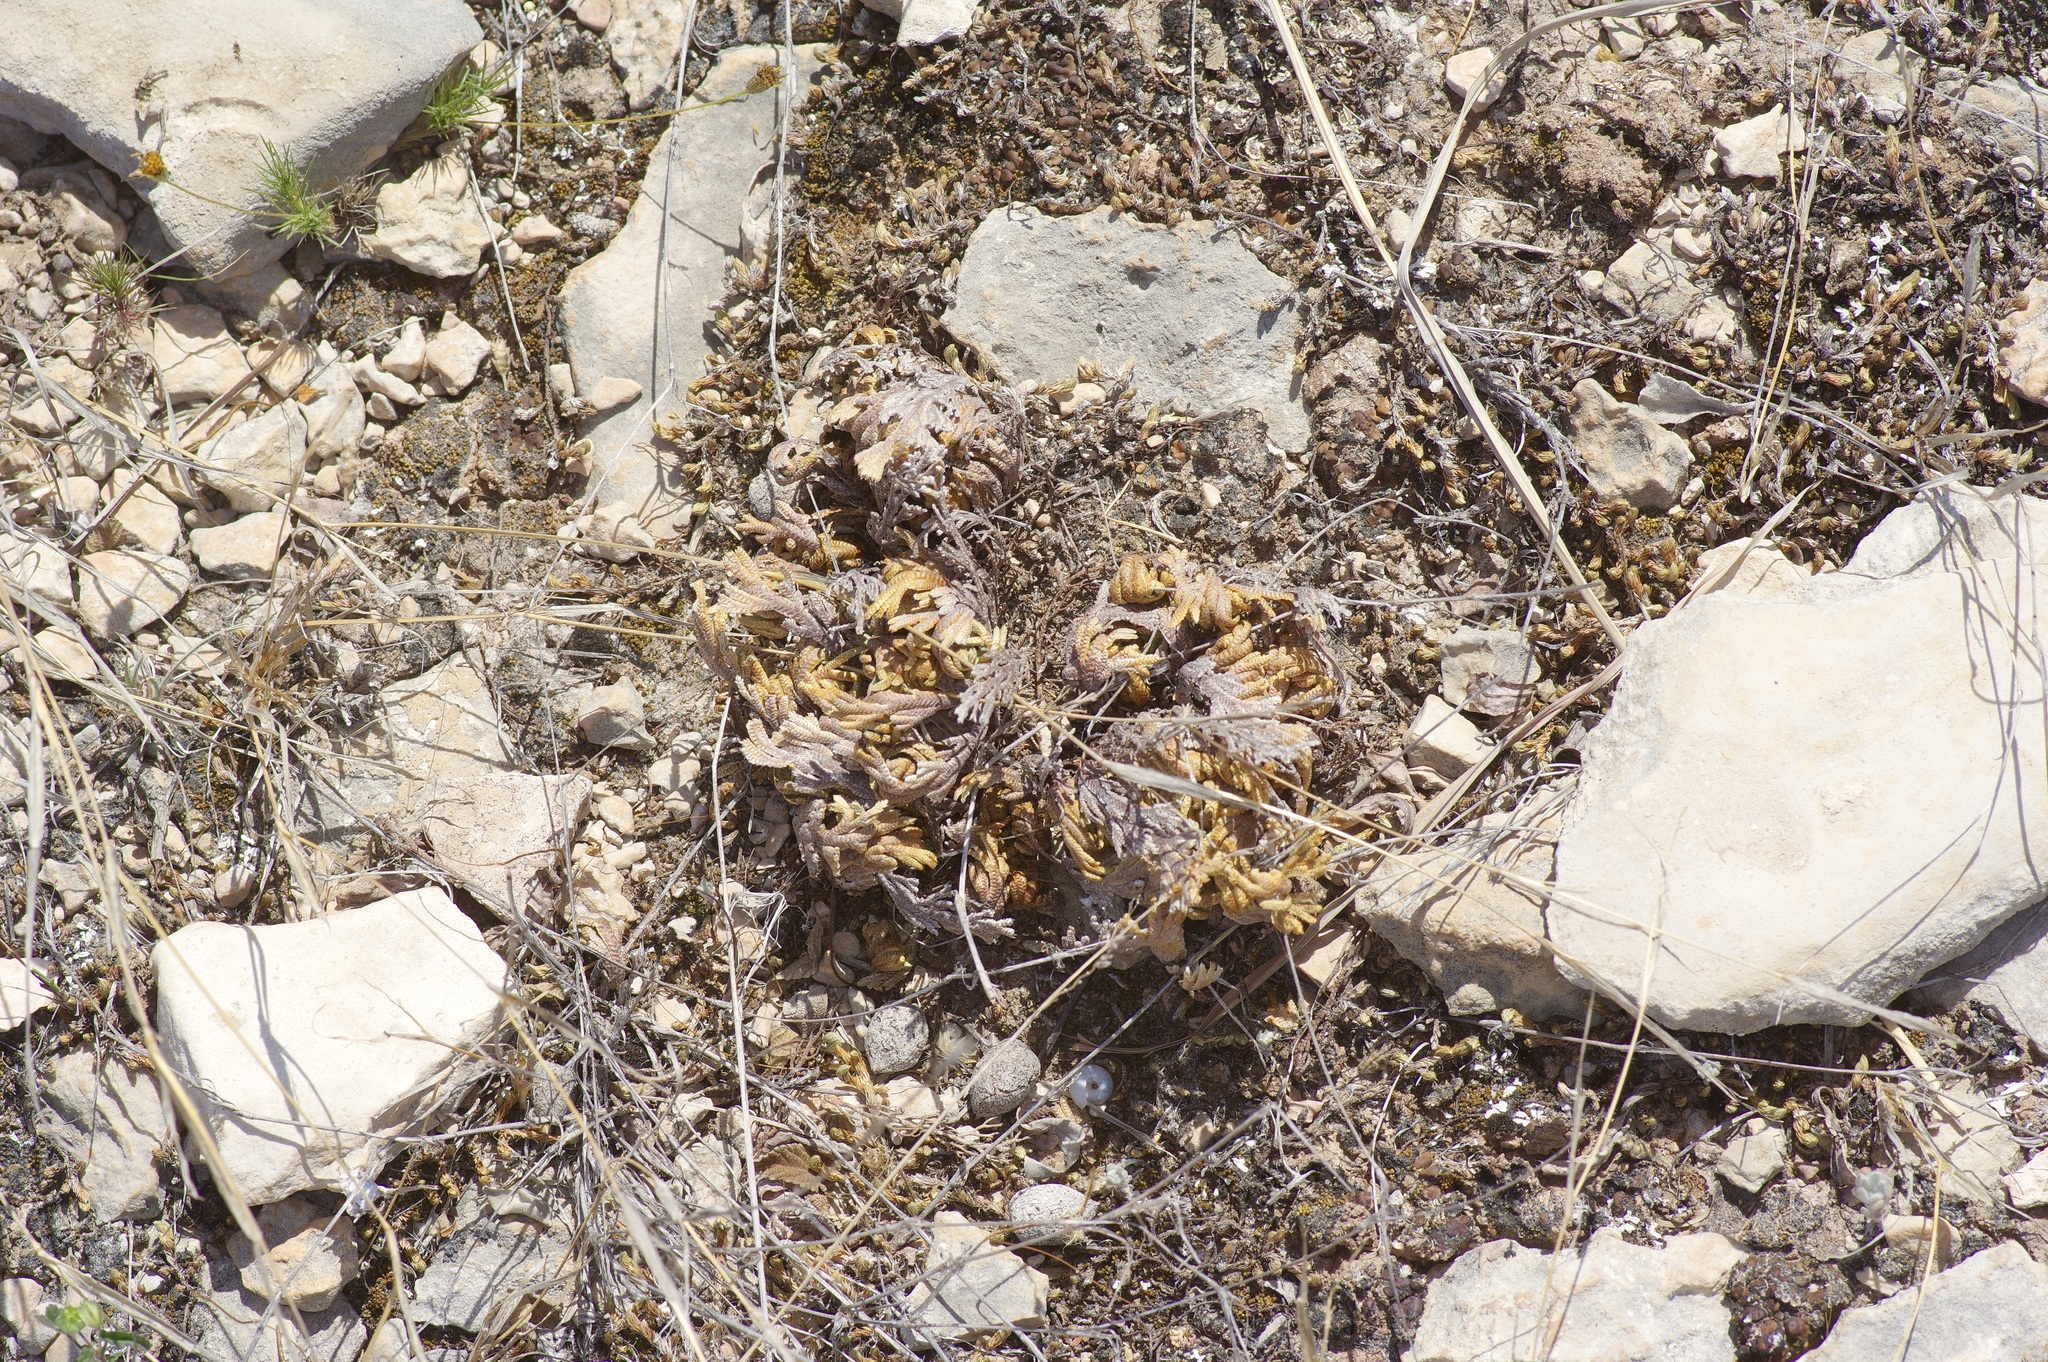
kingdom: Plantae
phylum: Tracheophyta
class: Lycopodiopsida
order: Selaginellales
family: Selaginellaceae
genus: Selaginella
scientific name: Selaginella lepidophylla
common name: Rose-of-jericho
